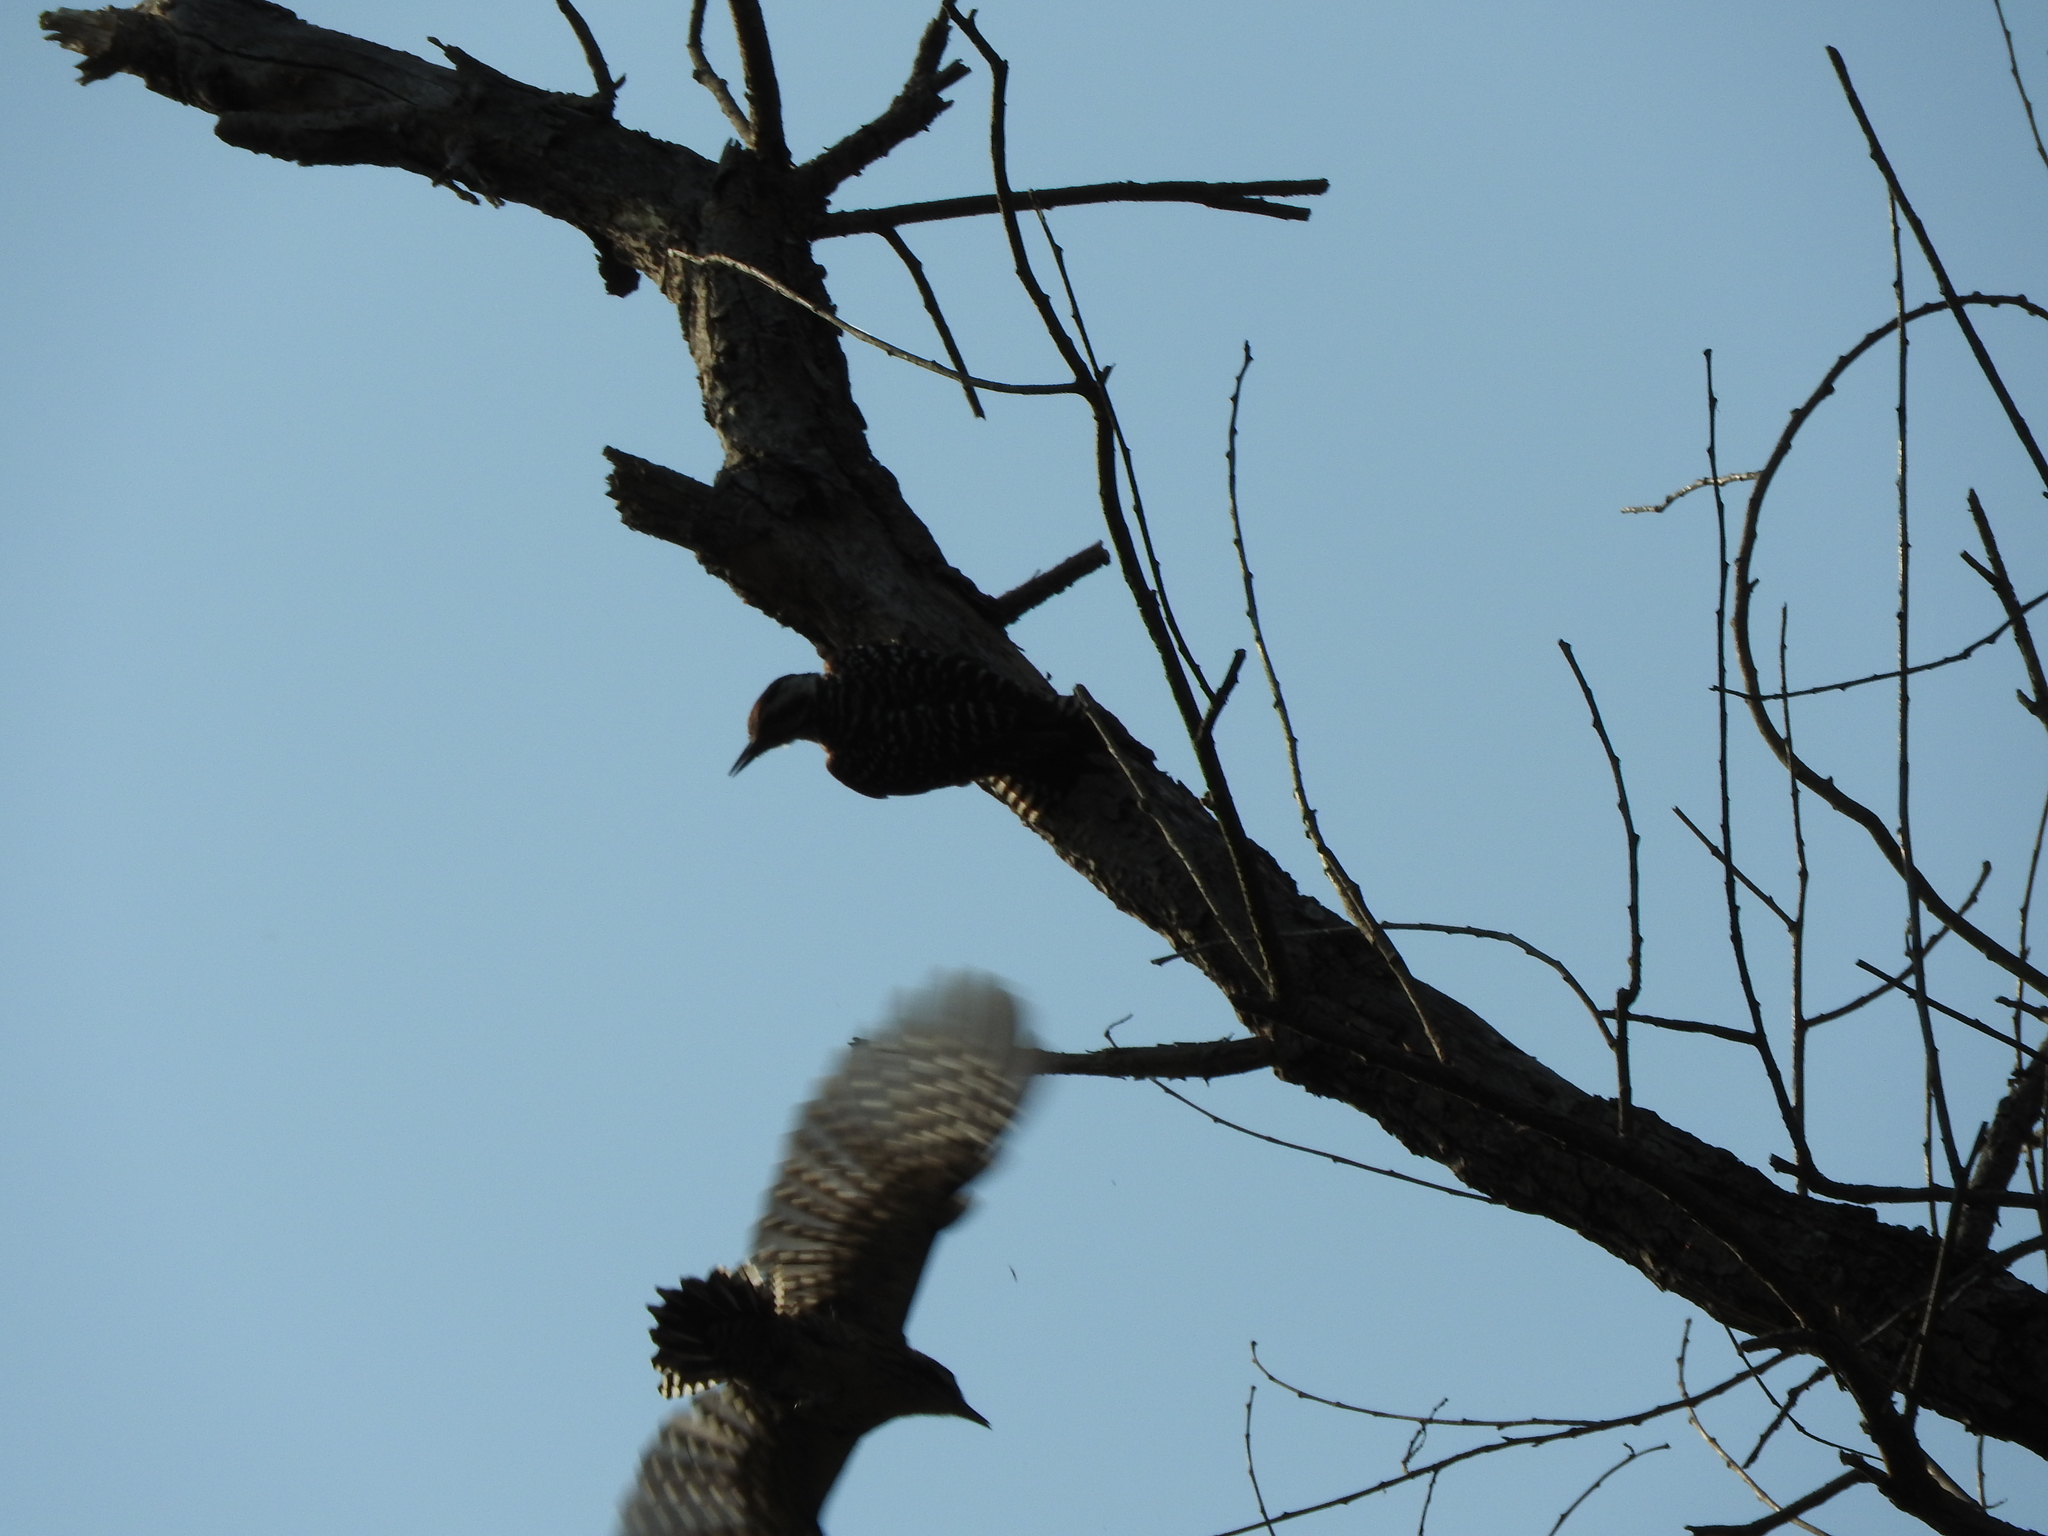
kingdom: Animalia
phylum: Chordata
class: Aves
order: Piciformes
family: Picidae
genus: Dryobates
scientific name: Dryobates scalaris
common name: Ladder-backed woodpecker
